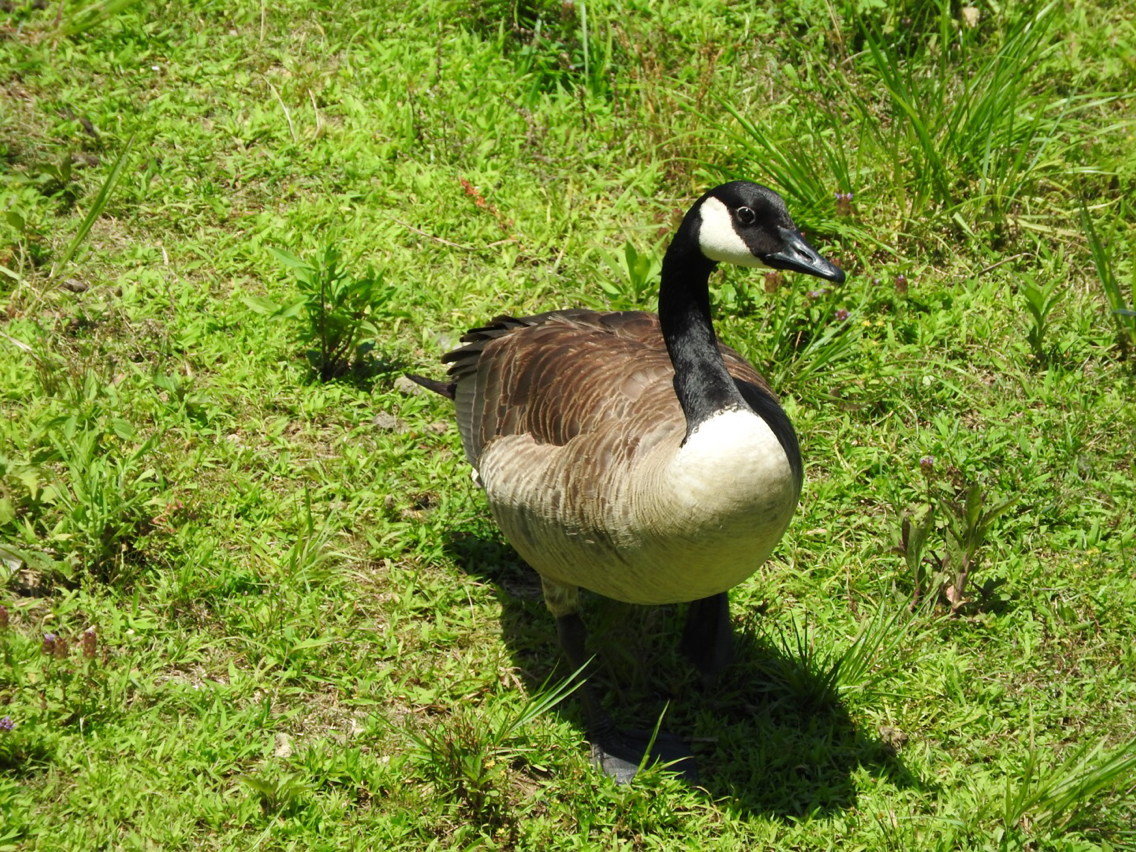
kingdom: Animalia
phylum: Chordata
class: Aves
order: Anseriformes
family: Anatidae
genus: Branta
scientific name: Branta canadensis
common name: Canada goose
